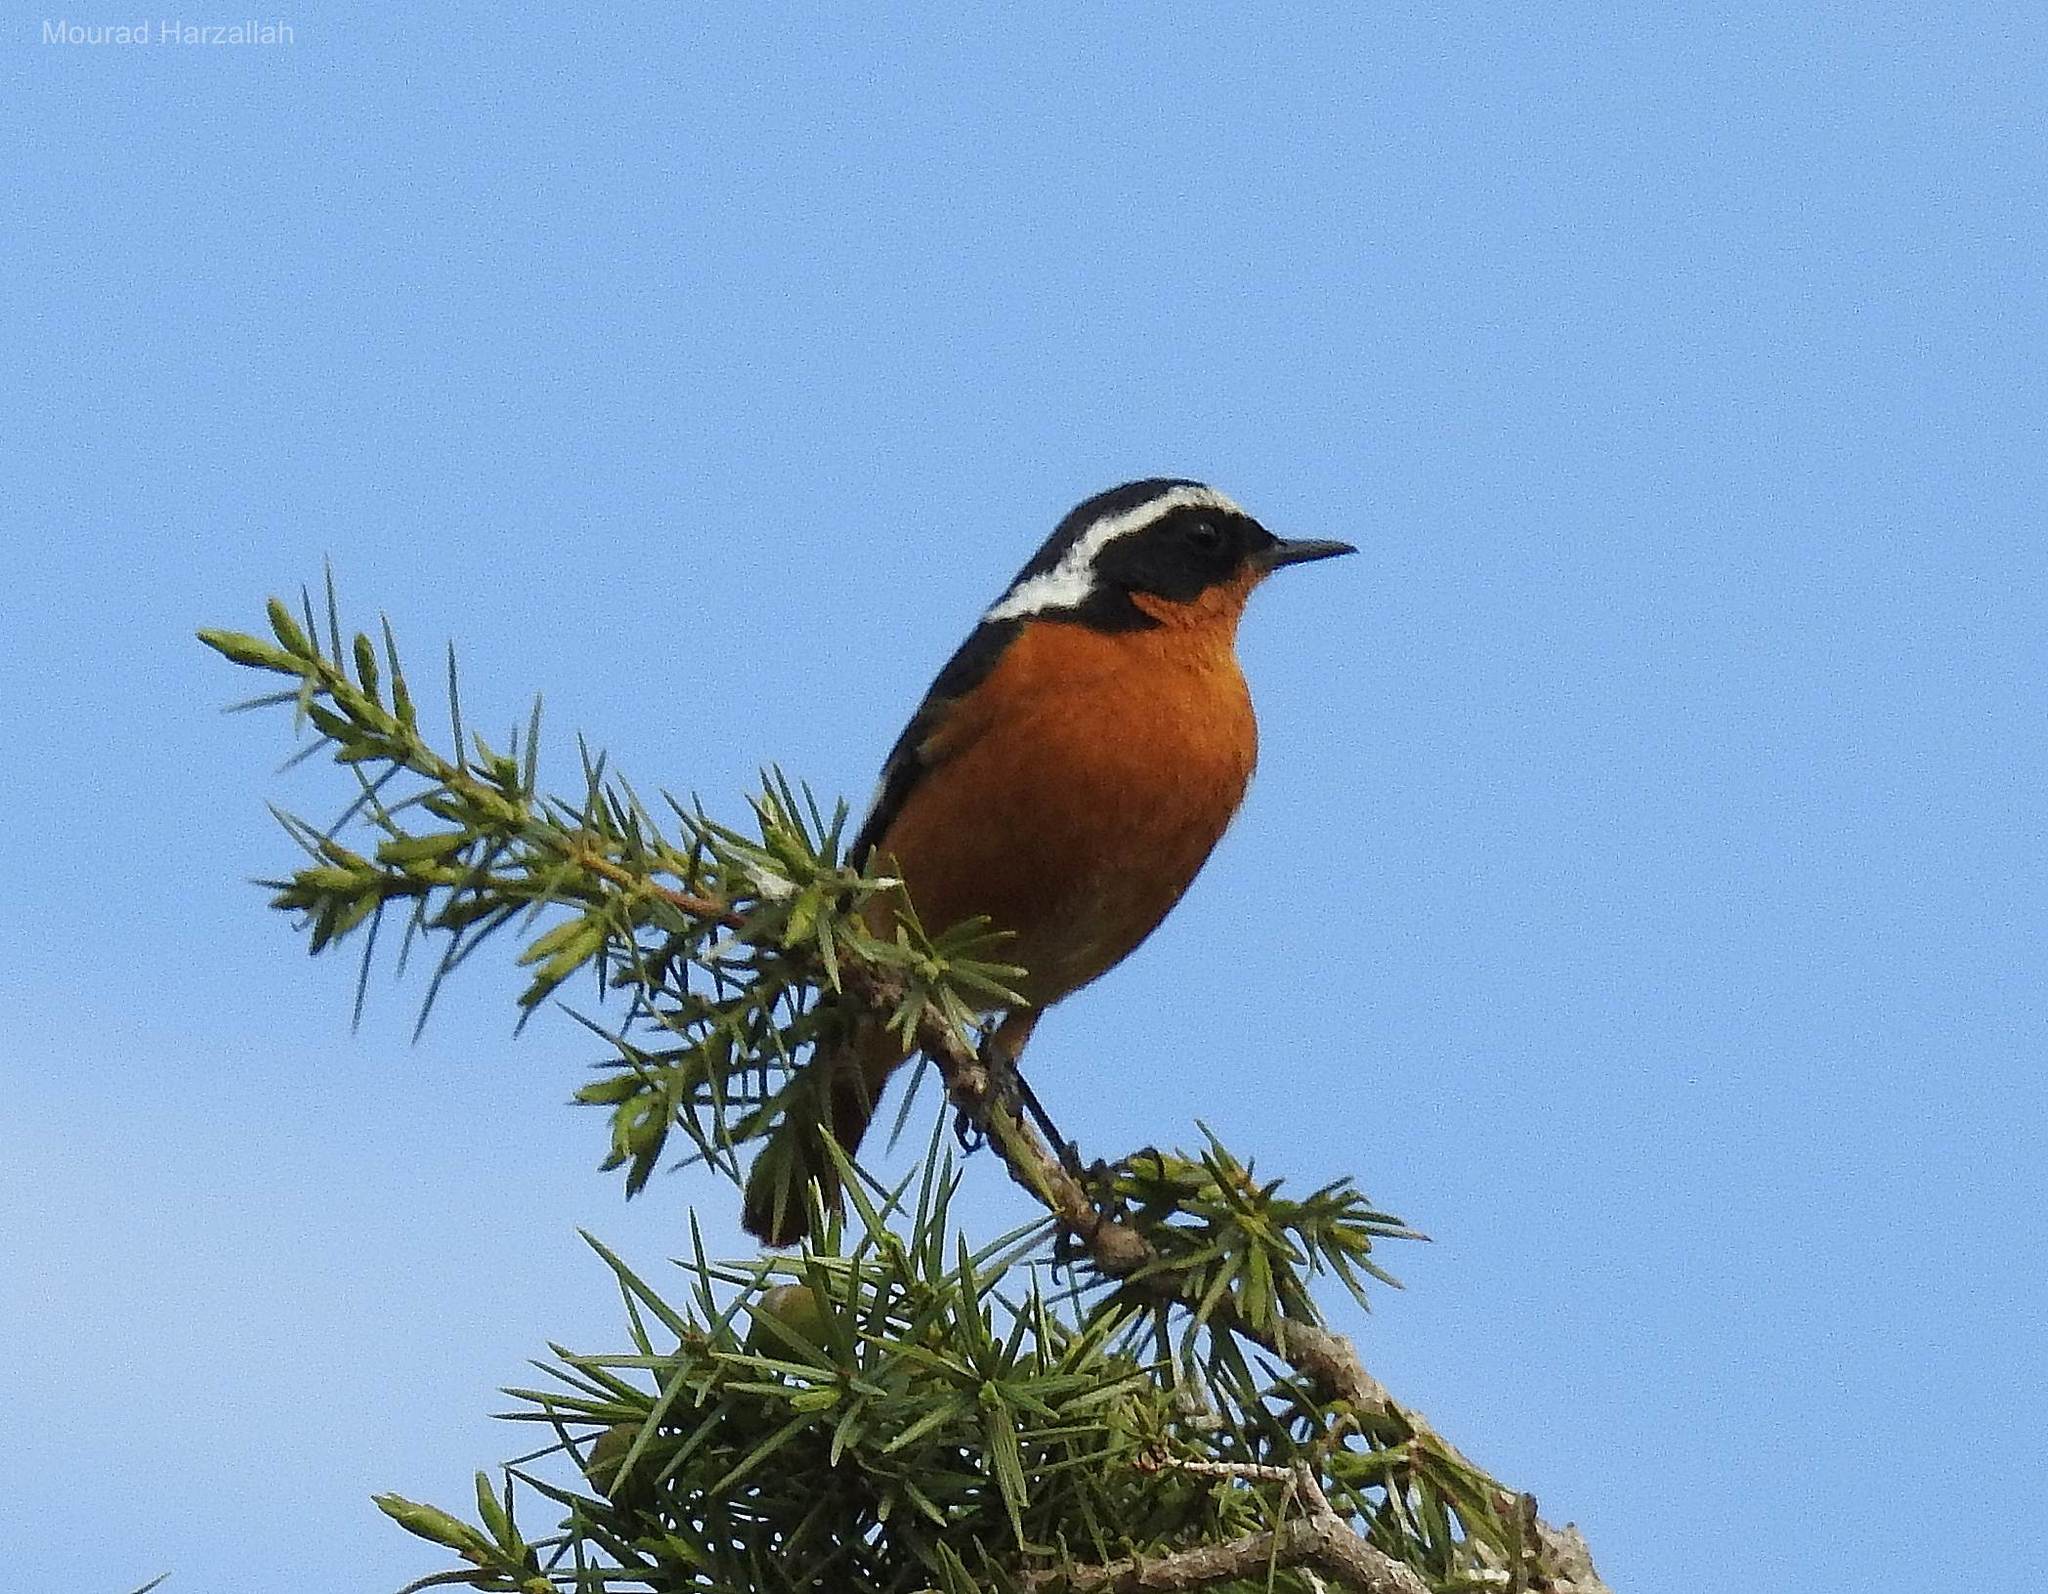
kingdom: Animalia
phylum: Chordata
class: Aves
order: Passeriformes
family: Muscicapidae
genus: Phoenicurus
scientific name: Phoenicurus moussieri
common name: Moussier's redstart
